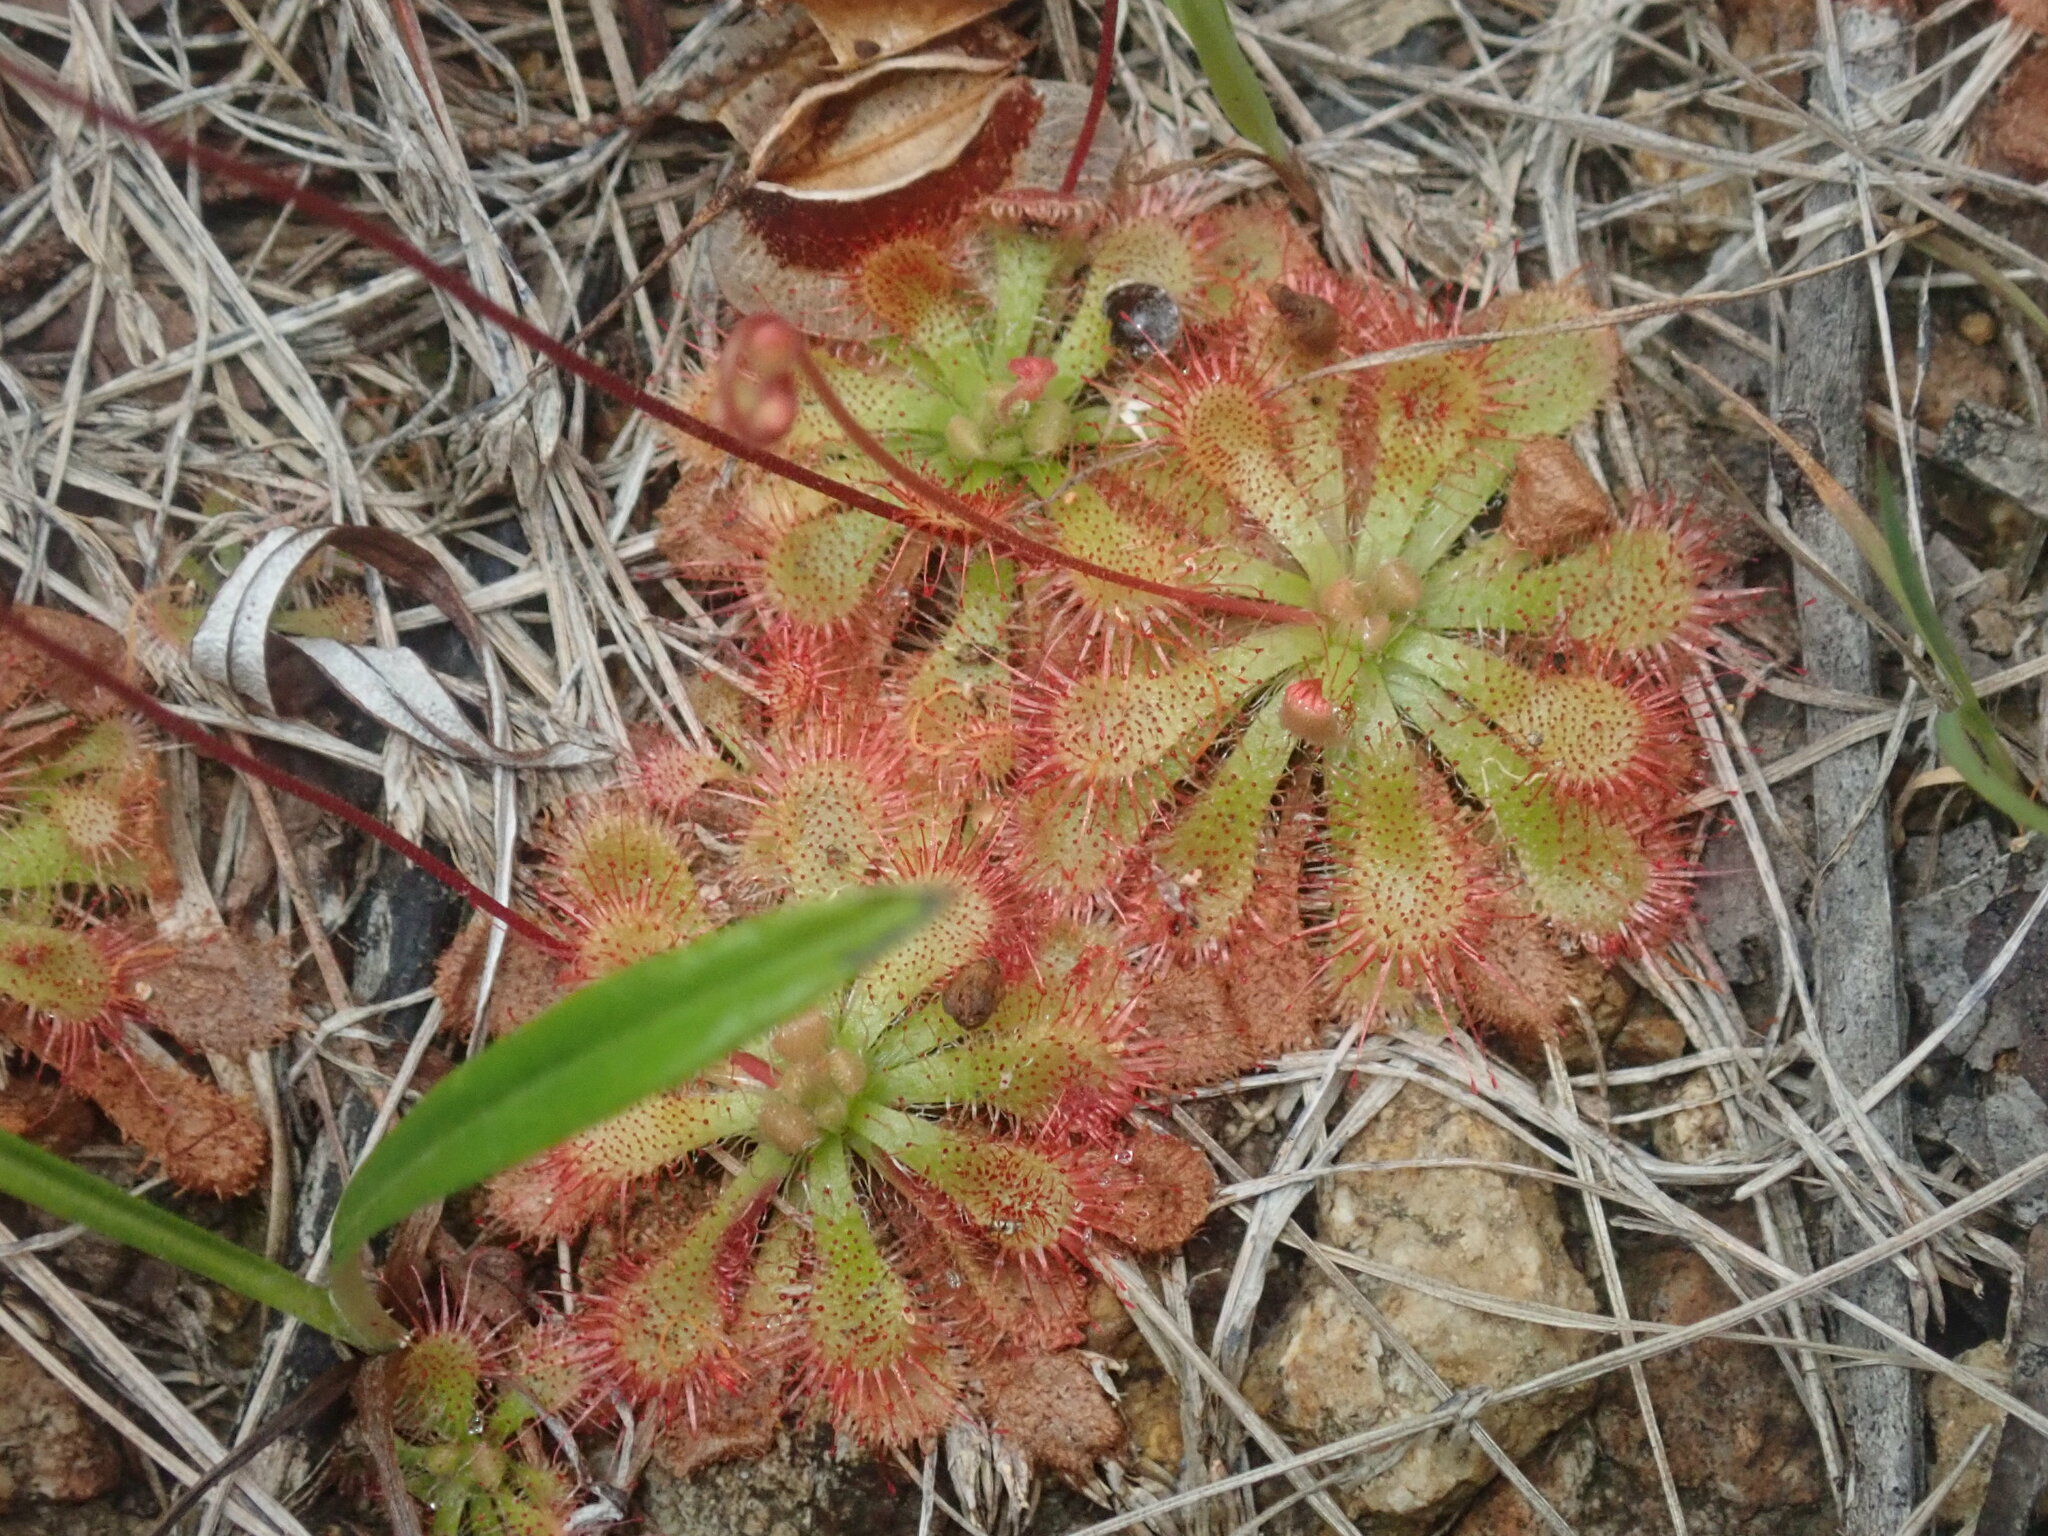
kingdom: Plantae
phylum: Tracheophyta
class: Magnoliopsida
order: Caryophyllales
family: Droseraceae
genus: Drosera
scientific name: Drosera spatulata
